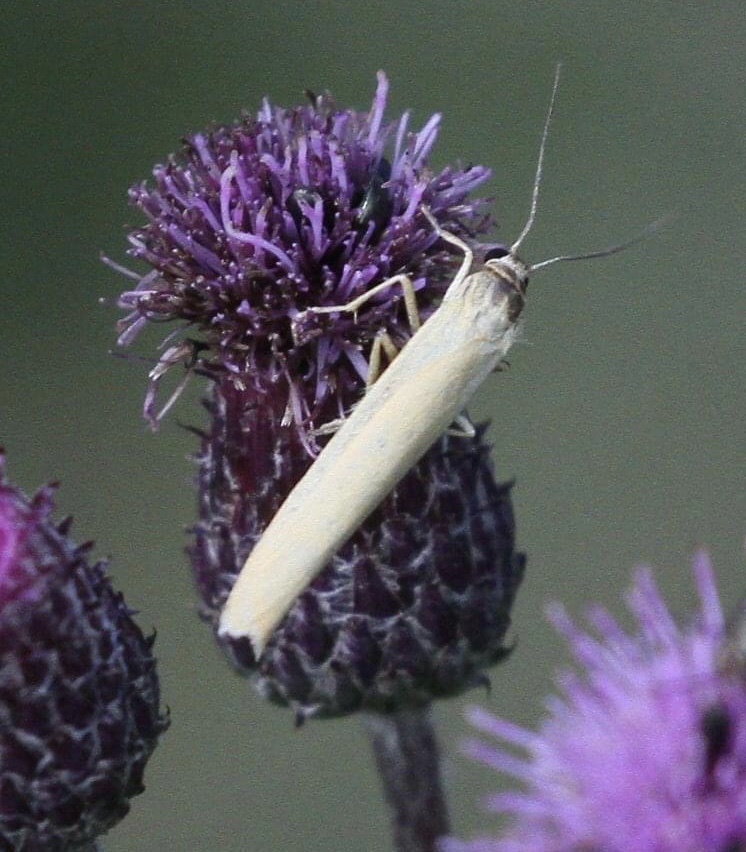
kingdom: Animalia
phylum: Arthropoda
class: Insecta
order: Lepidoptera
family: Erebidae
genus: Indalia
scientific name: Indalia lutarella
